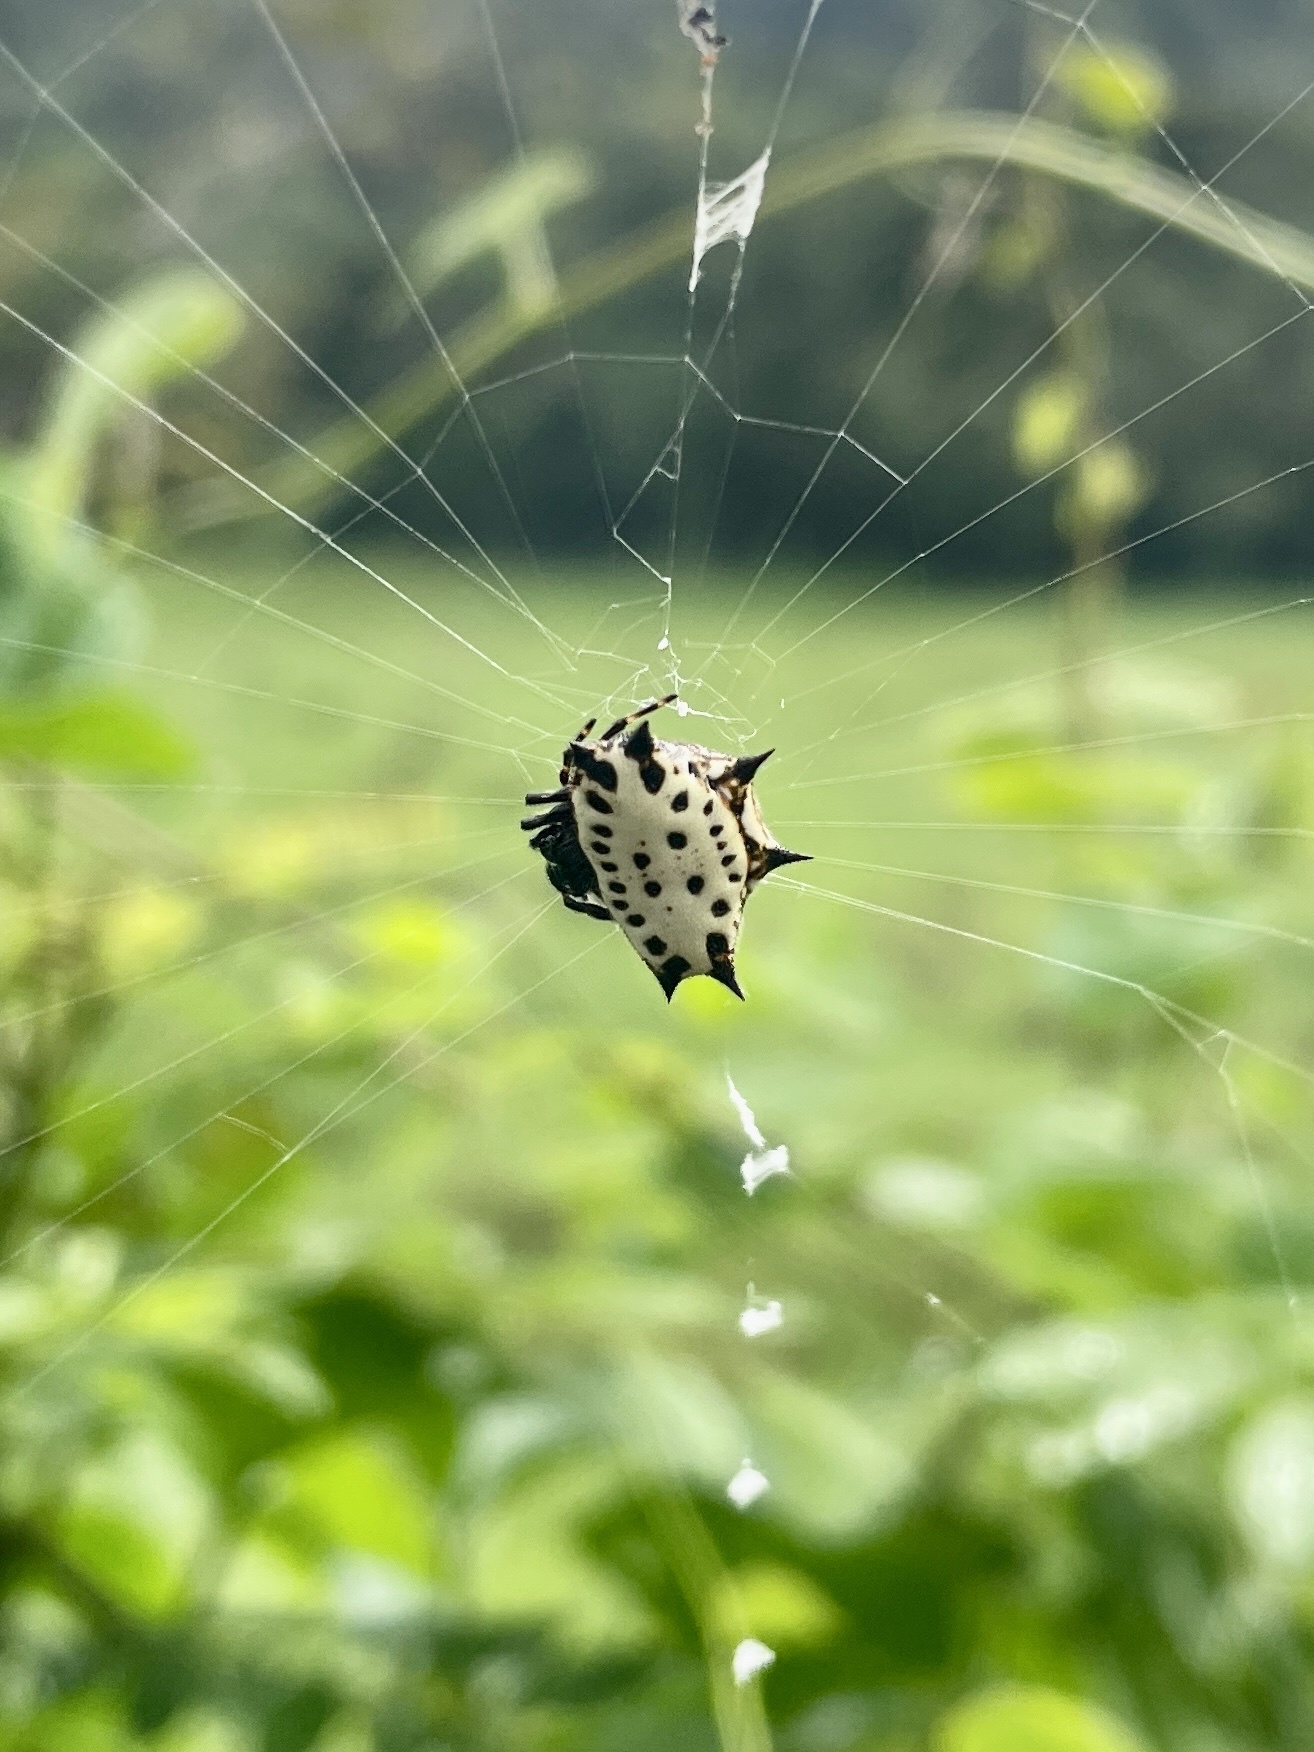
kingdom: Animalia
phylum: Arthropoda
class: Arachnida
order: Araneae
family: Araneidae
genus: Gasteracantha
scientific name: Gasteracantha cancriformis
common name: Orb weavers
